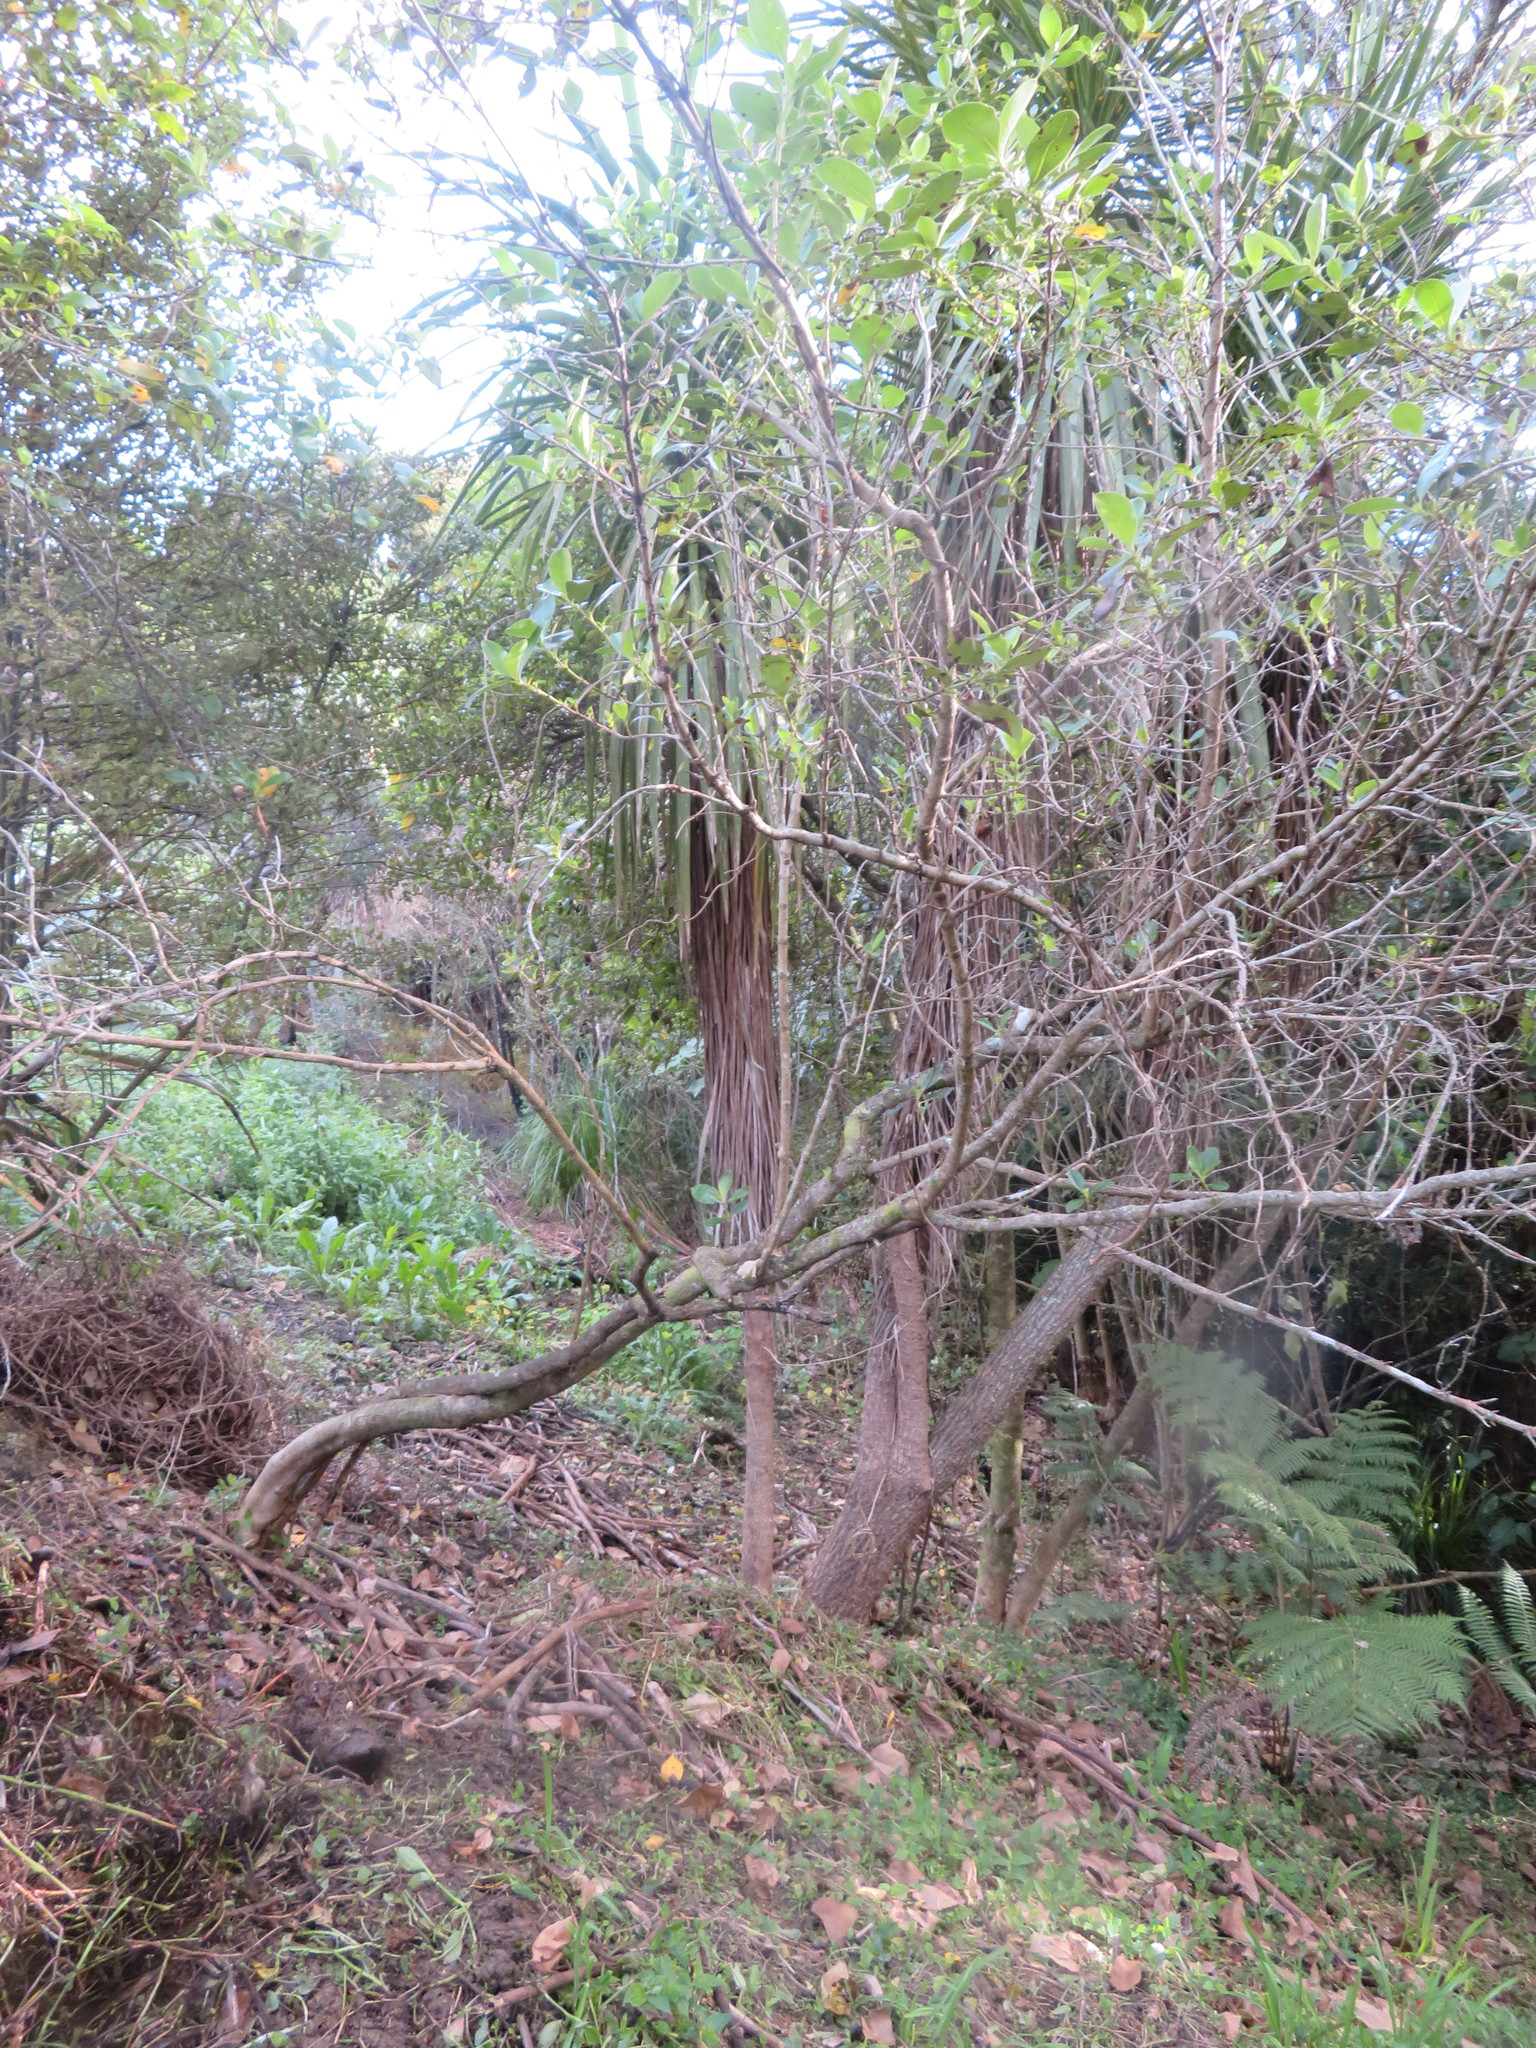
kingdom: Plantae
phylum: Tracheophyta
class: Liliopsida
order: Asparagales
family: Asparagaceae
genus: Cordyline
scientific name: Cordyline australis
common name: Cabbage-palm
